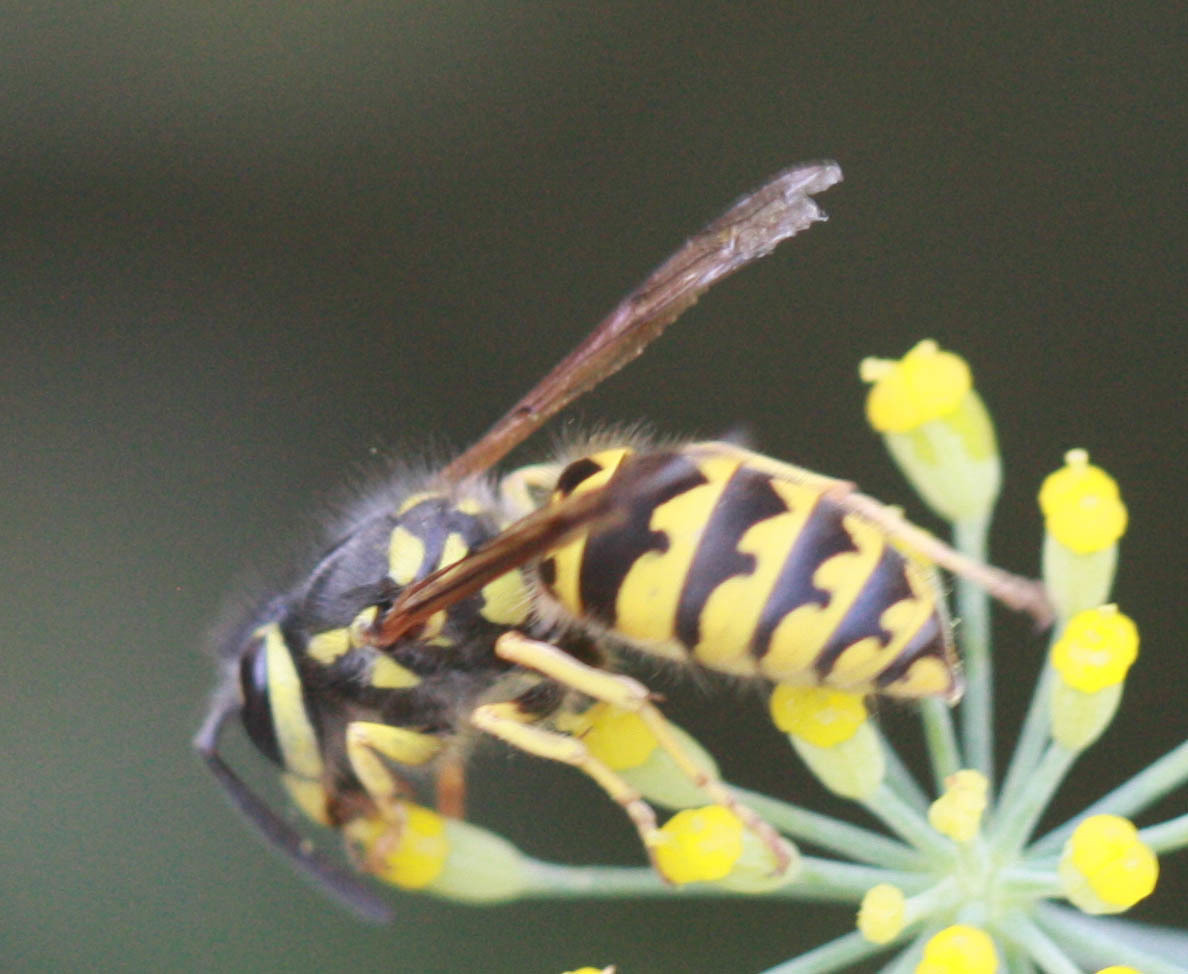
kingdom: Animalia
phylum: Arthropoda
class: Insecta
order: Hymenoptera
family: Vespidae
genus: Vespula
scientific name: Vespula pensylvanica
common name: Western yellowjacket
